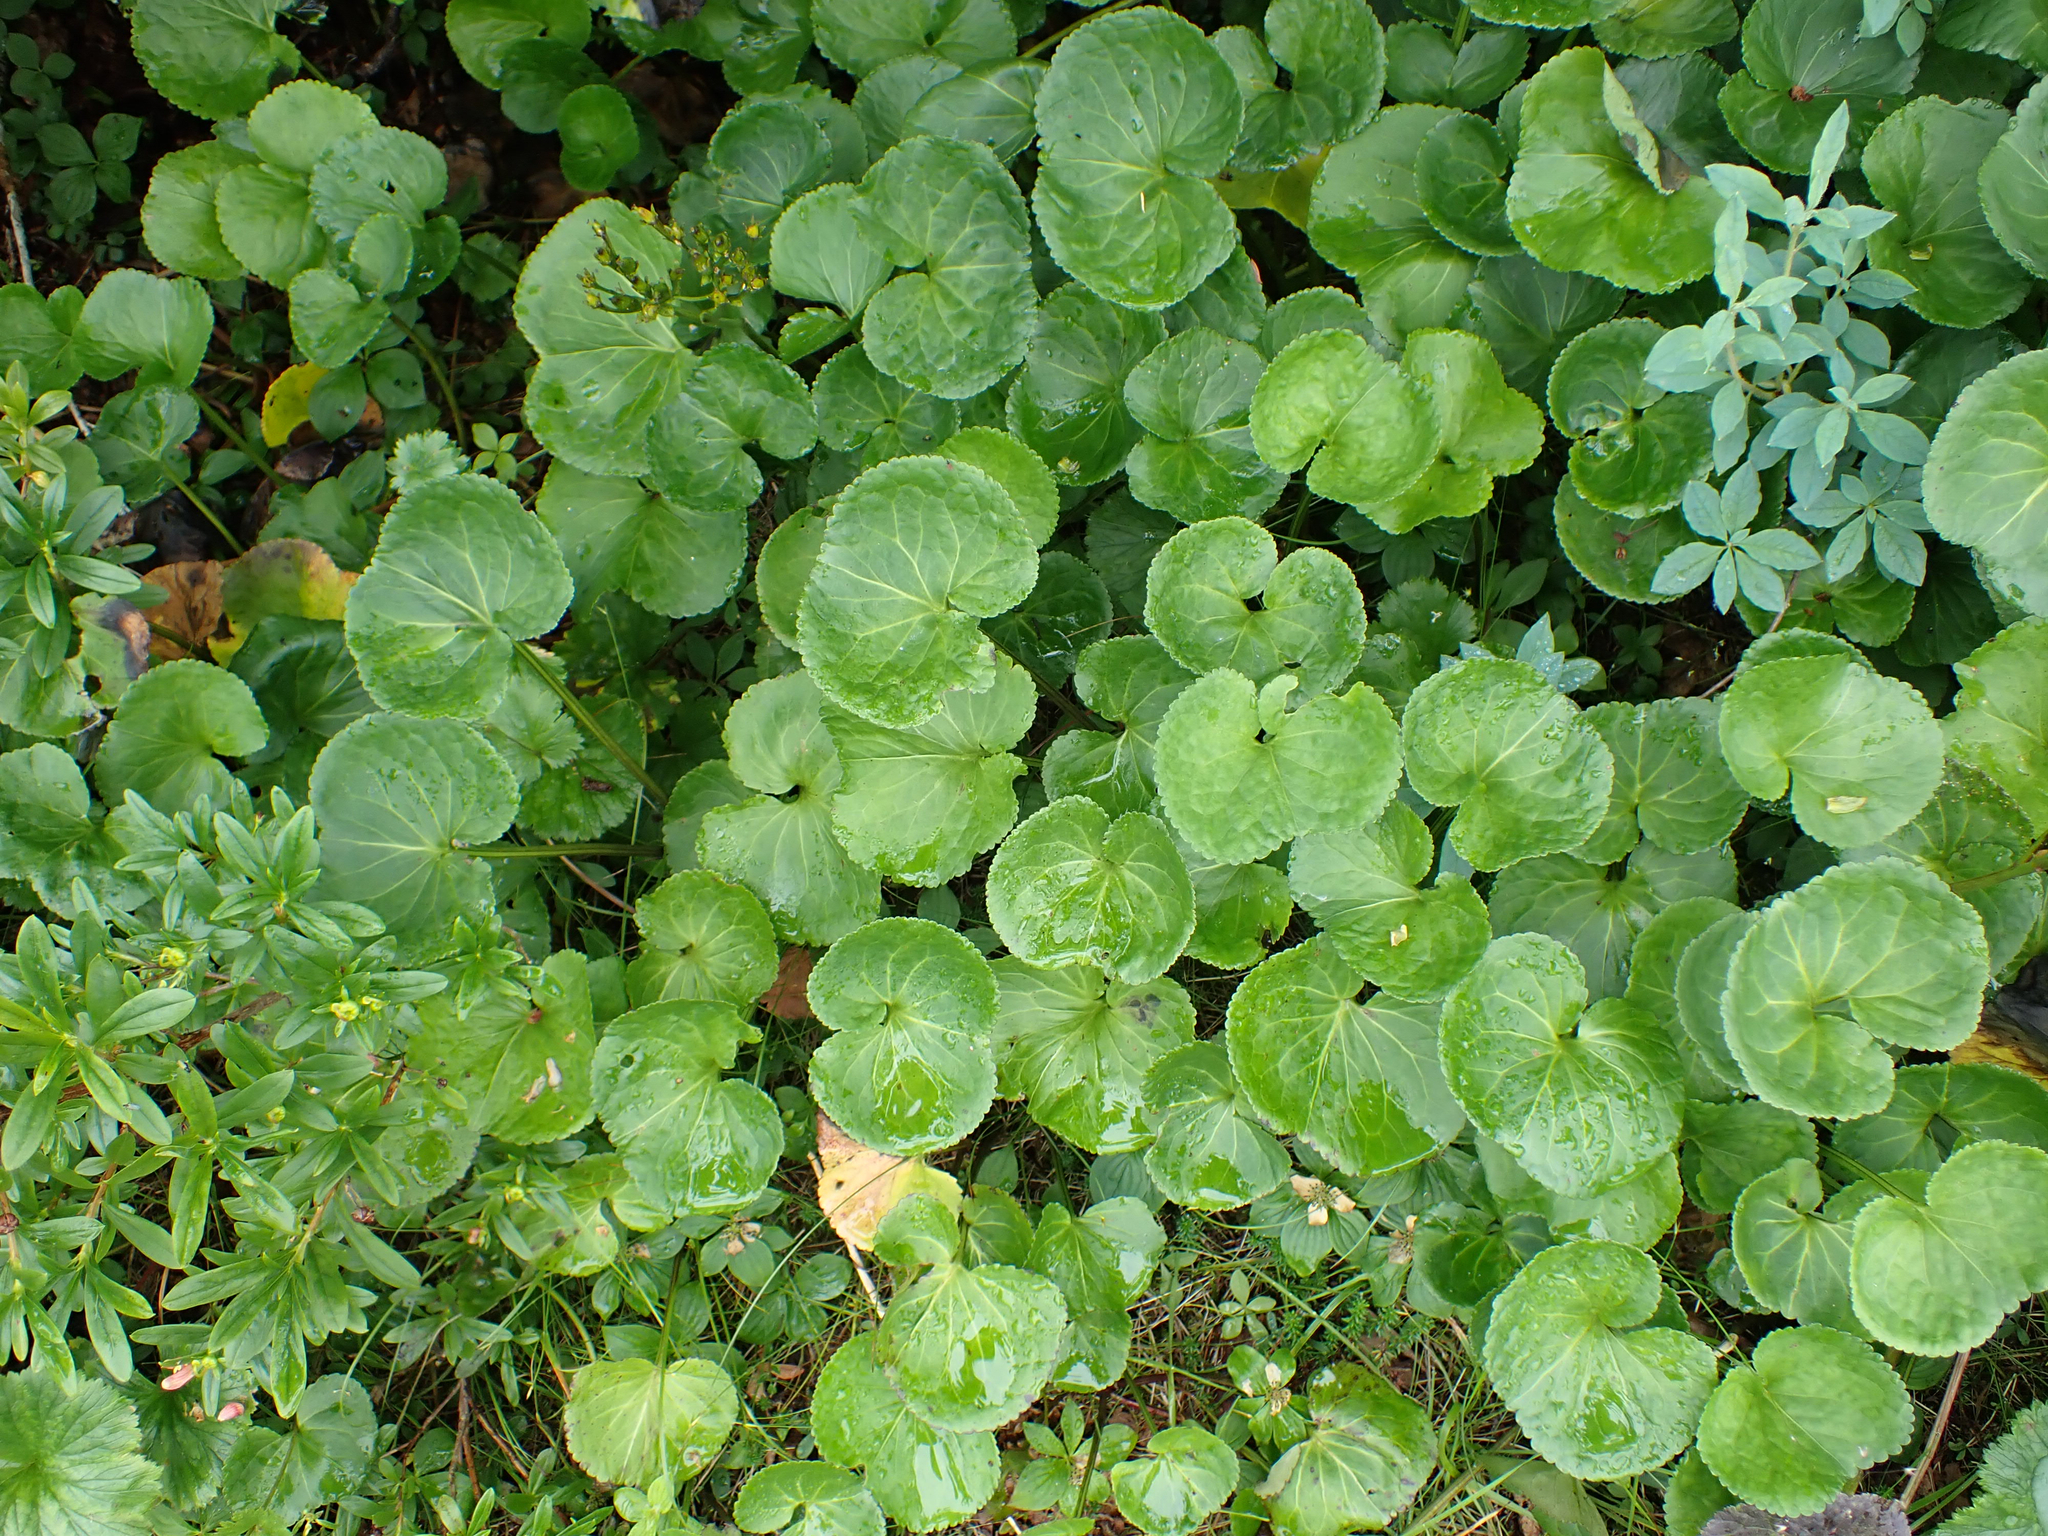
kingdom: Plantae
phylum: Tracheophyta
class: Magnoliopsida
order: Asterales
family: Menyanthaceae
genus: Nephrophyllidium
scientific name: Nephrophyllidium crista-galli
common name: Deer-cabbage
